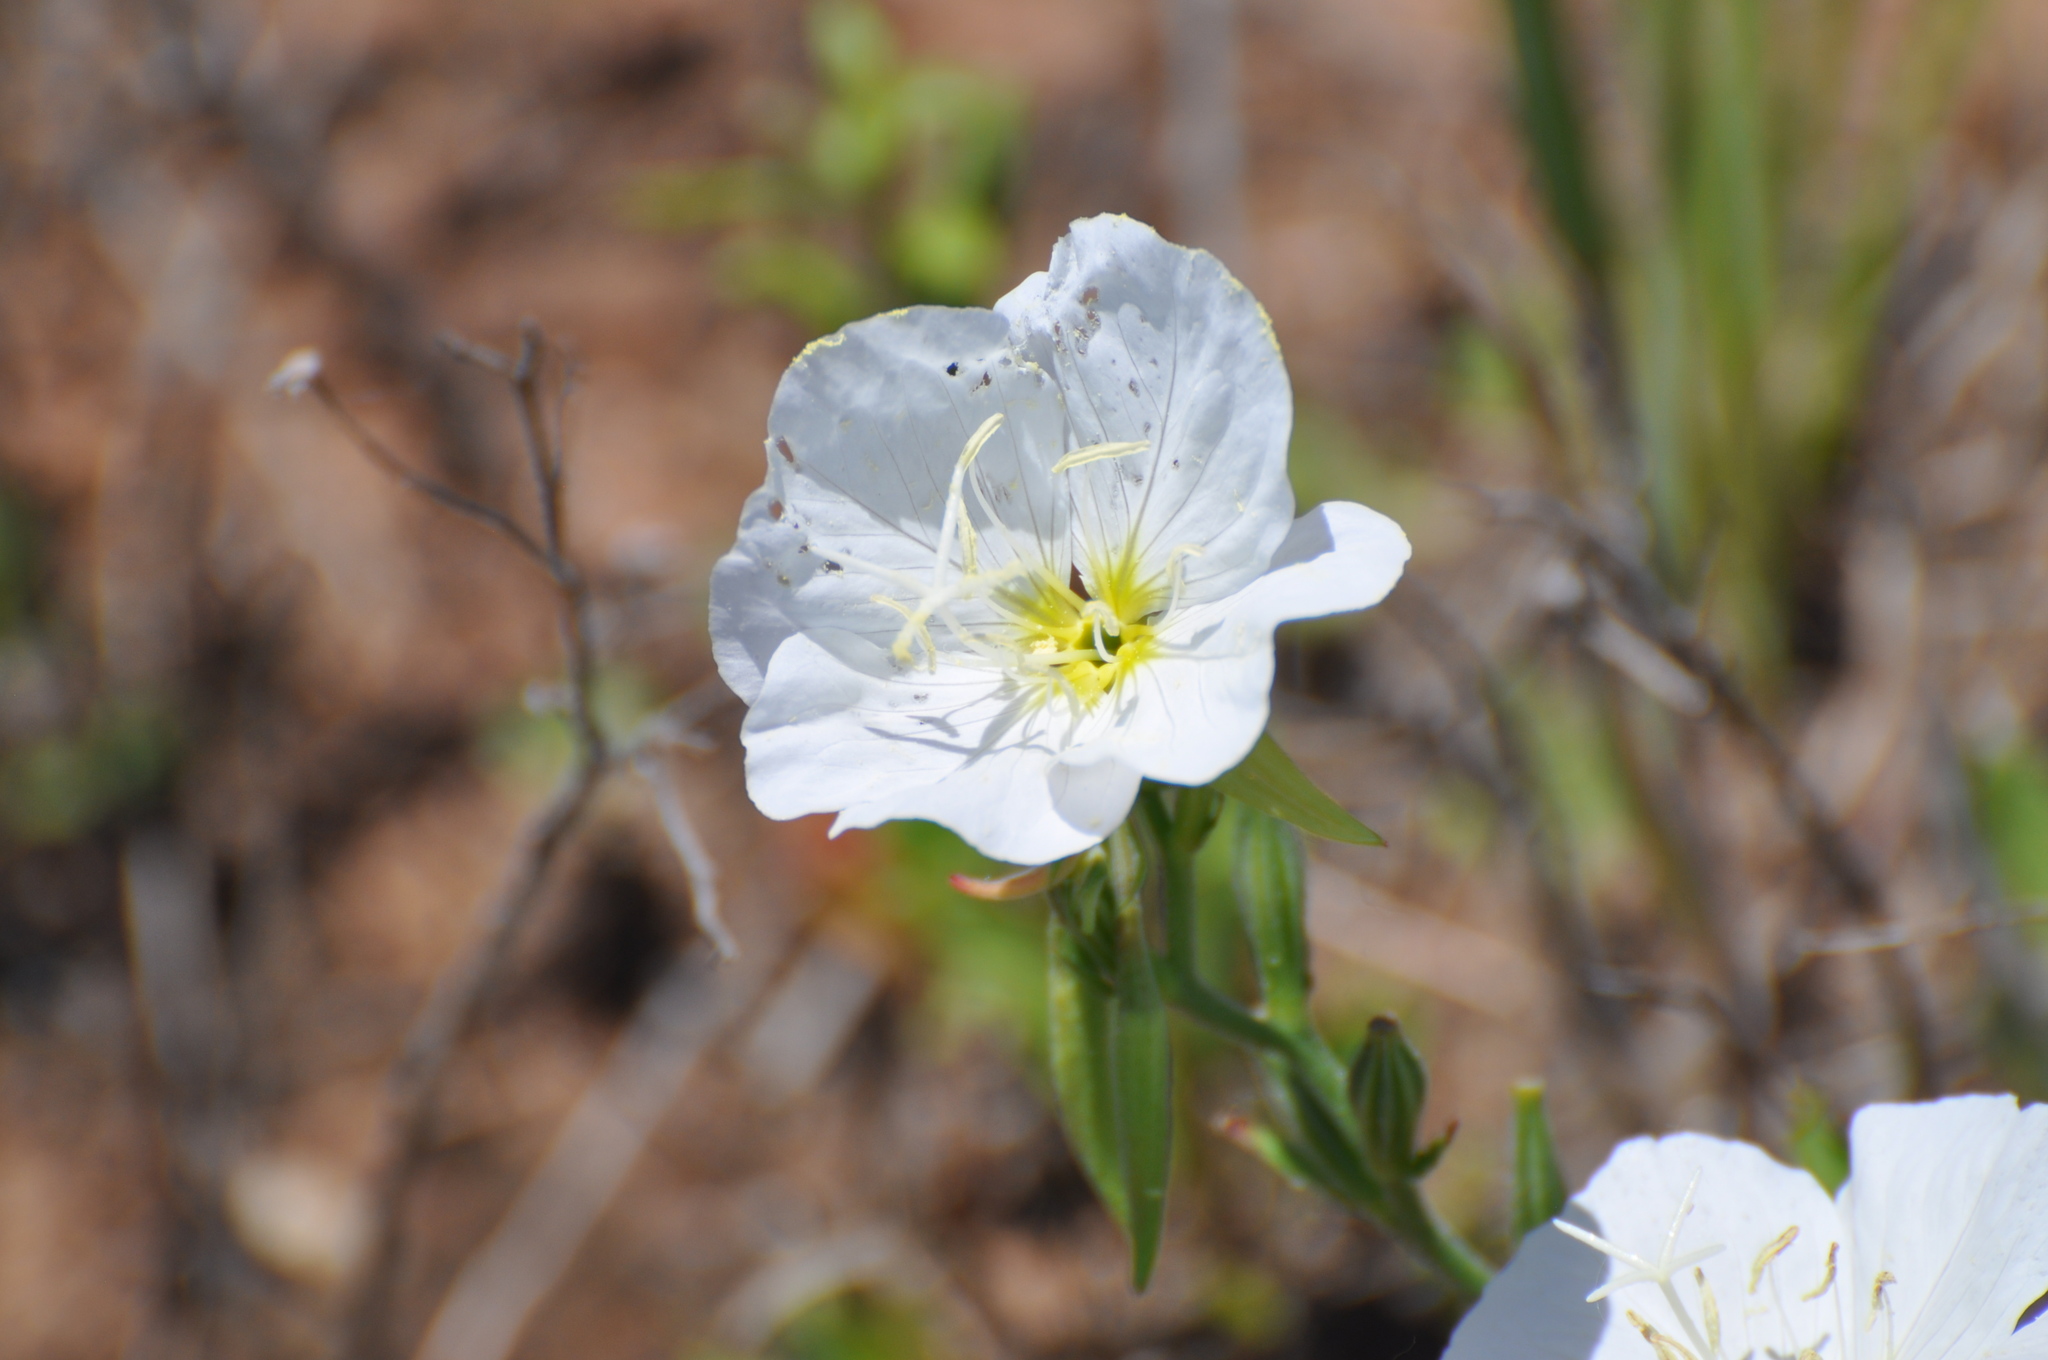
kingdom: Plantae
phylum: Tracheophyta
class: Magnoliopsida
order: Myrtales
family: Onagraceae
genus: Oenothera
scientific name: Oenothera speciosa
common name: White evening-primrose
